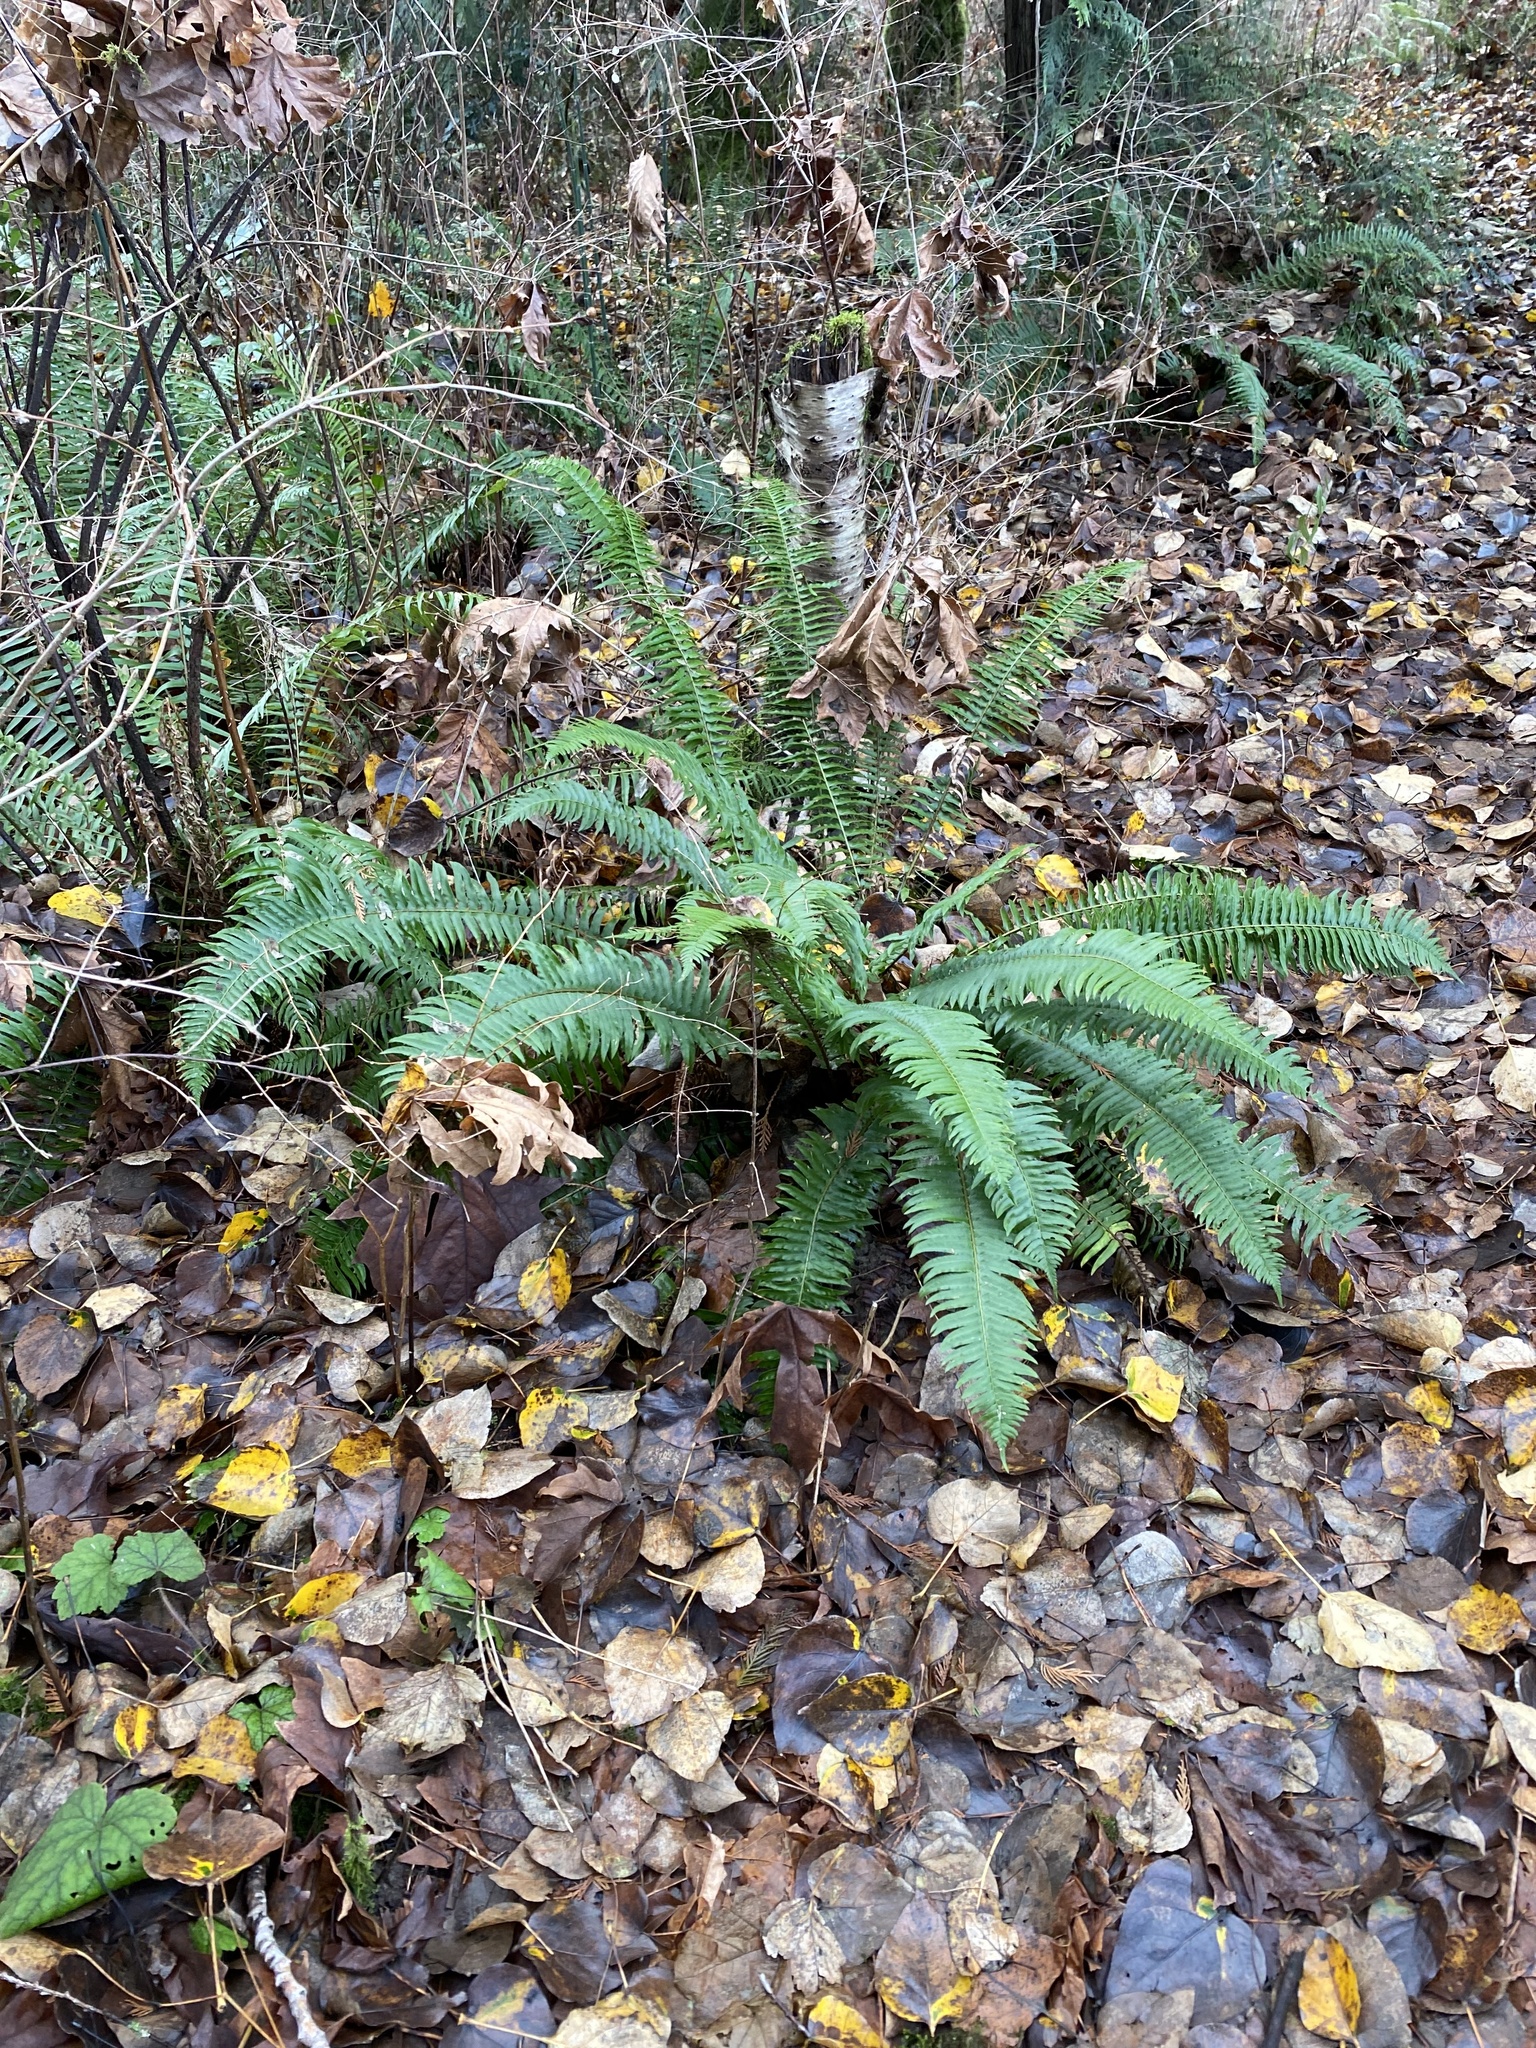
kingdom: Plantae
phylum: Tracheophyta
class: Polypodiopsida
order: Polypodiales
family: Dryopteridaceae
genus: Polystichum
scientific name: Polystichum munitum
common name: Western sword-fern
